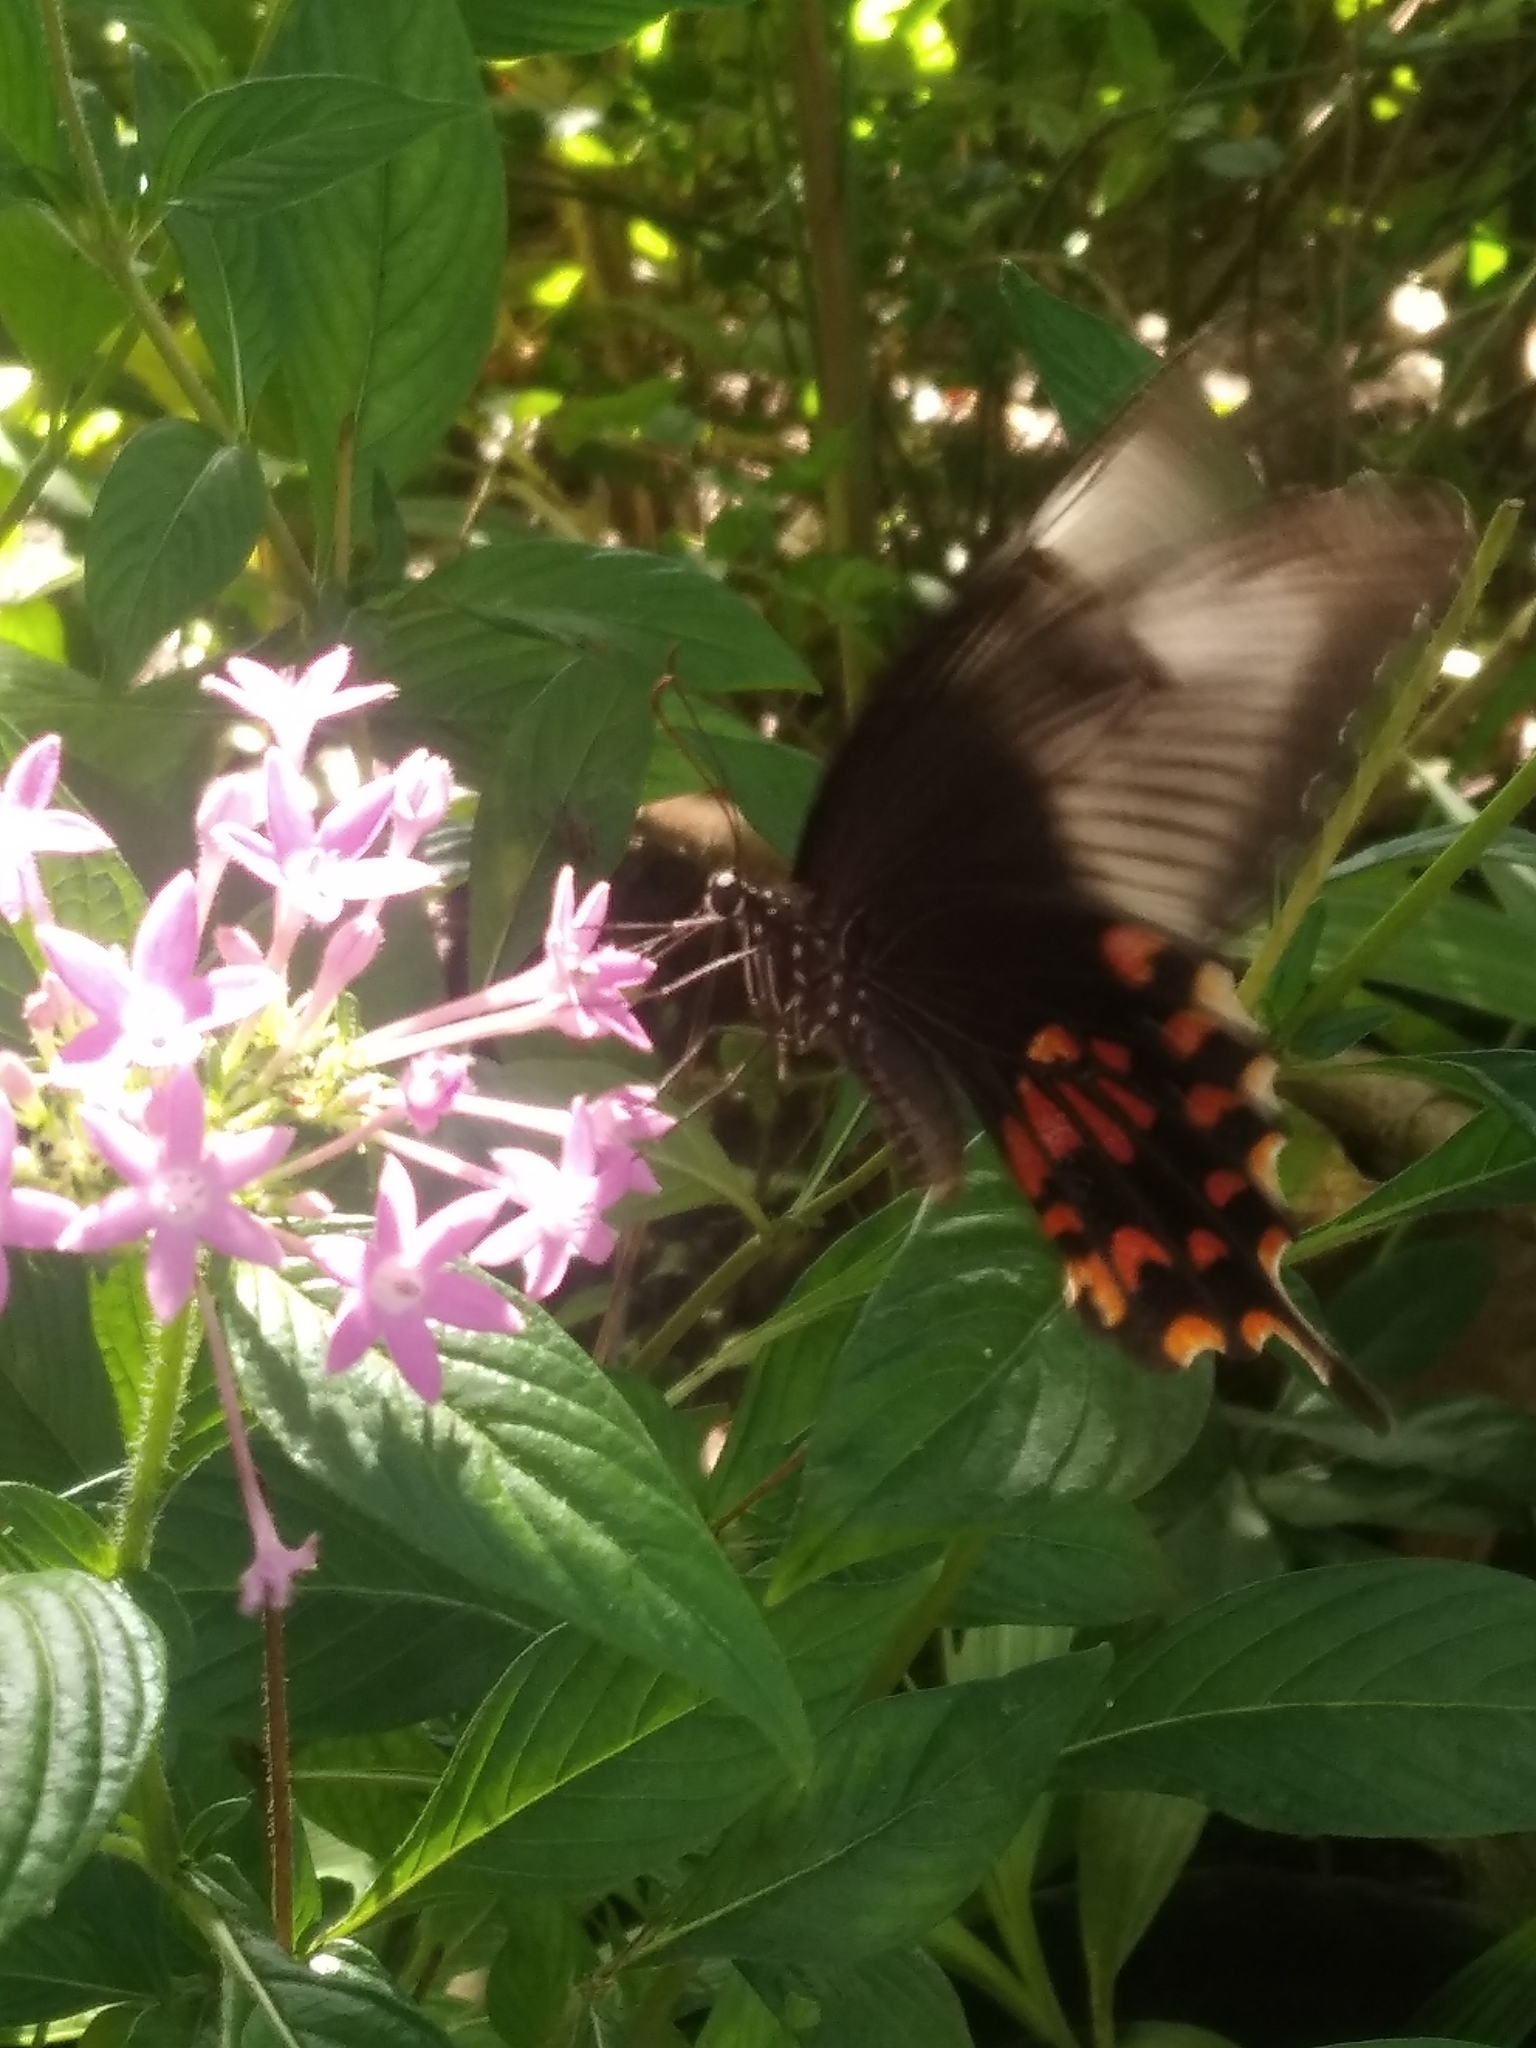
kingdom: Animalia
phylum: Arthropoda
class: Insecta
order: Lepidoptera
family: Papilionidae
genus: Papilio
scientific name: Papilio polytes
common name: Common mormon
